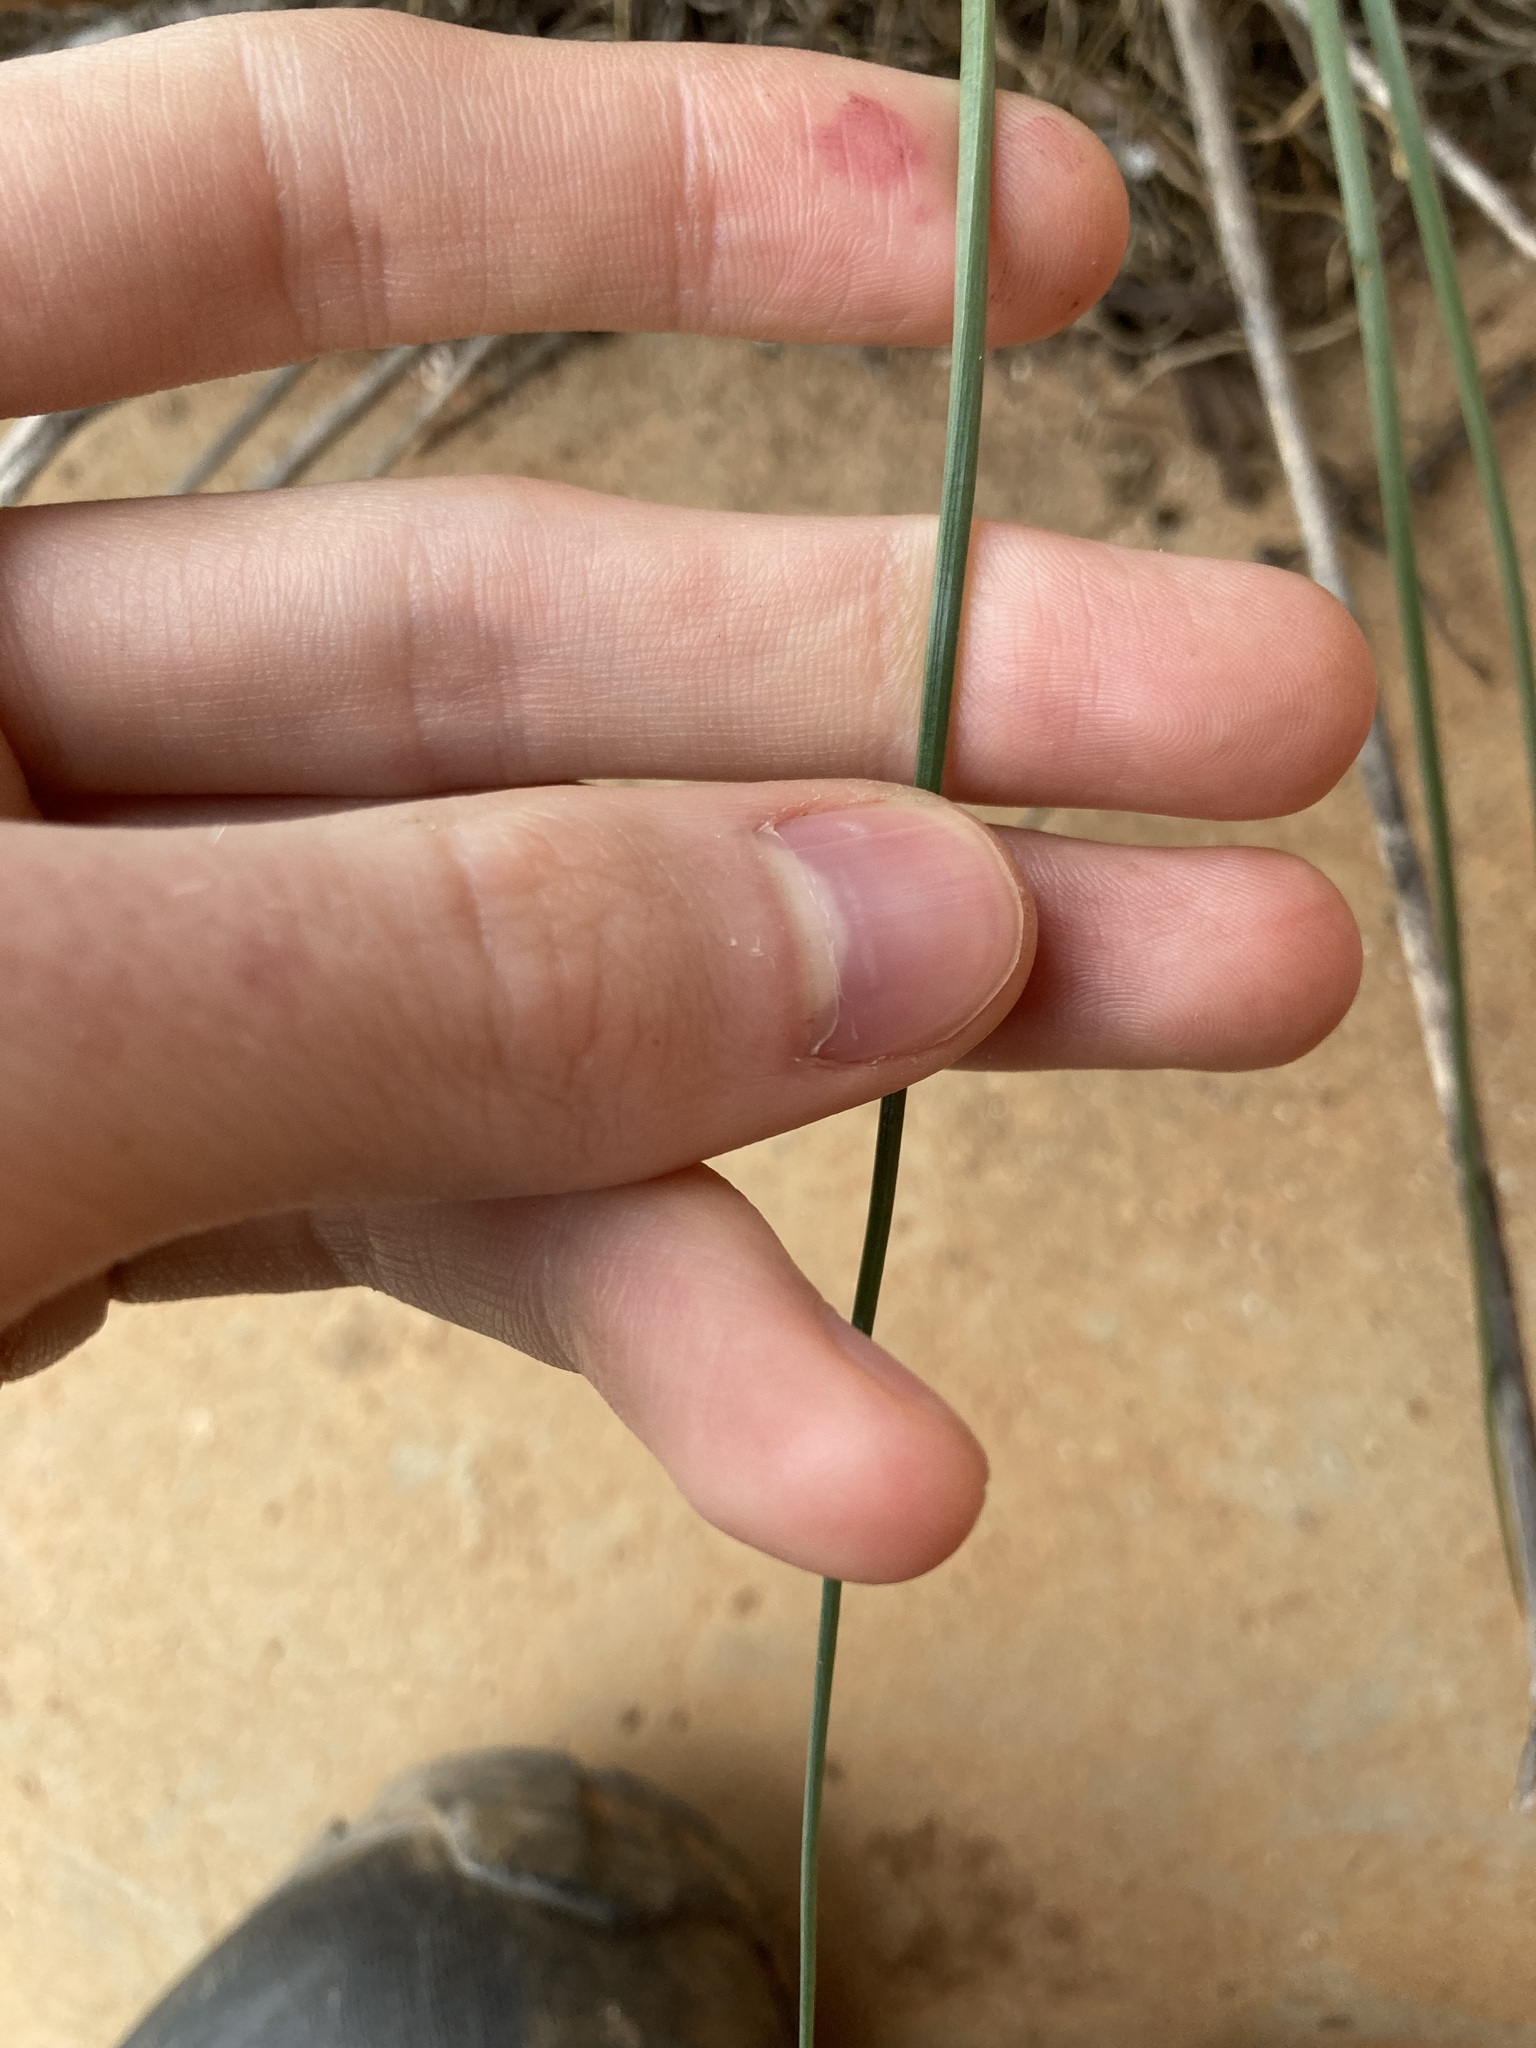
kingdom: Plantae
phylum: Tracheophyta
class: Liliopsida
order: Asparagales
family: Asphodelaceae
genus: Asphodelus
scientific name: Asphodelus fistulosus
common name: Onionweed
